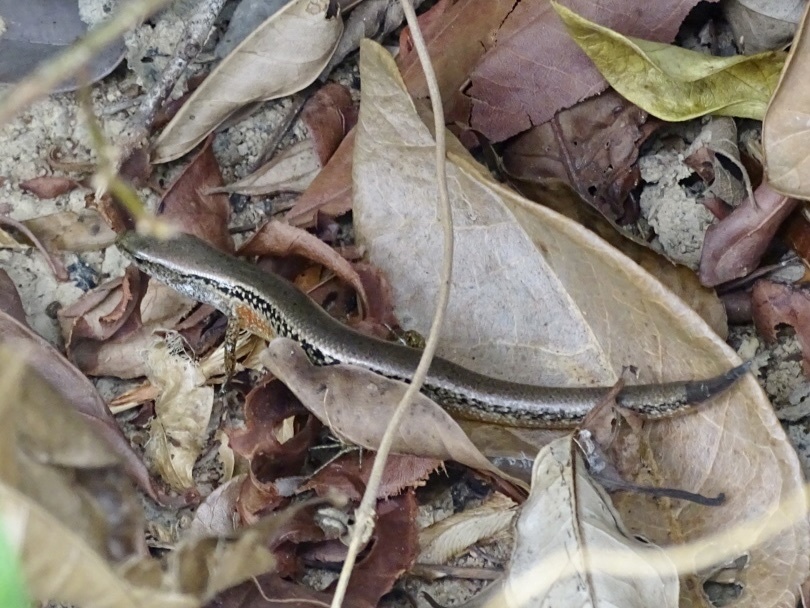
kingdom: Animalia
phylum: Chordata
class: Squamata
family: Scincidae
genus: Scincella
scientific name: Scincella reevesii
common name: Reeves’ smooth gecko
